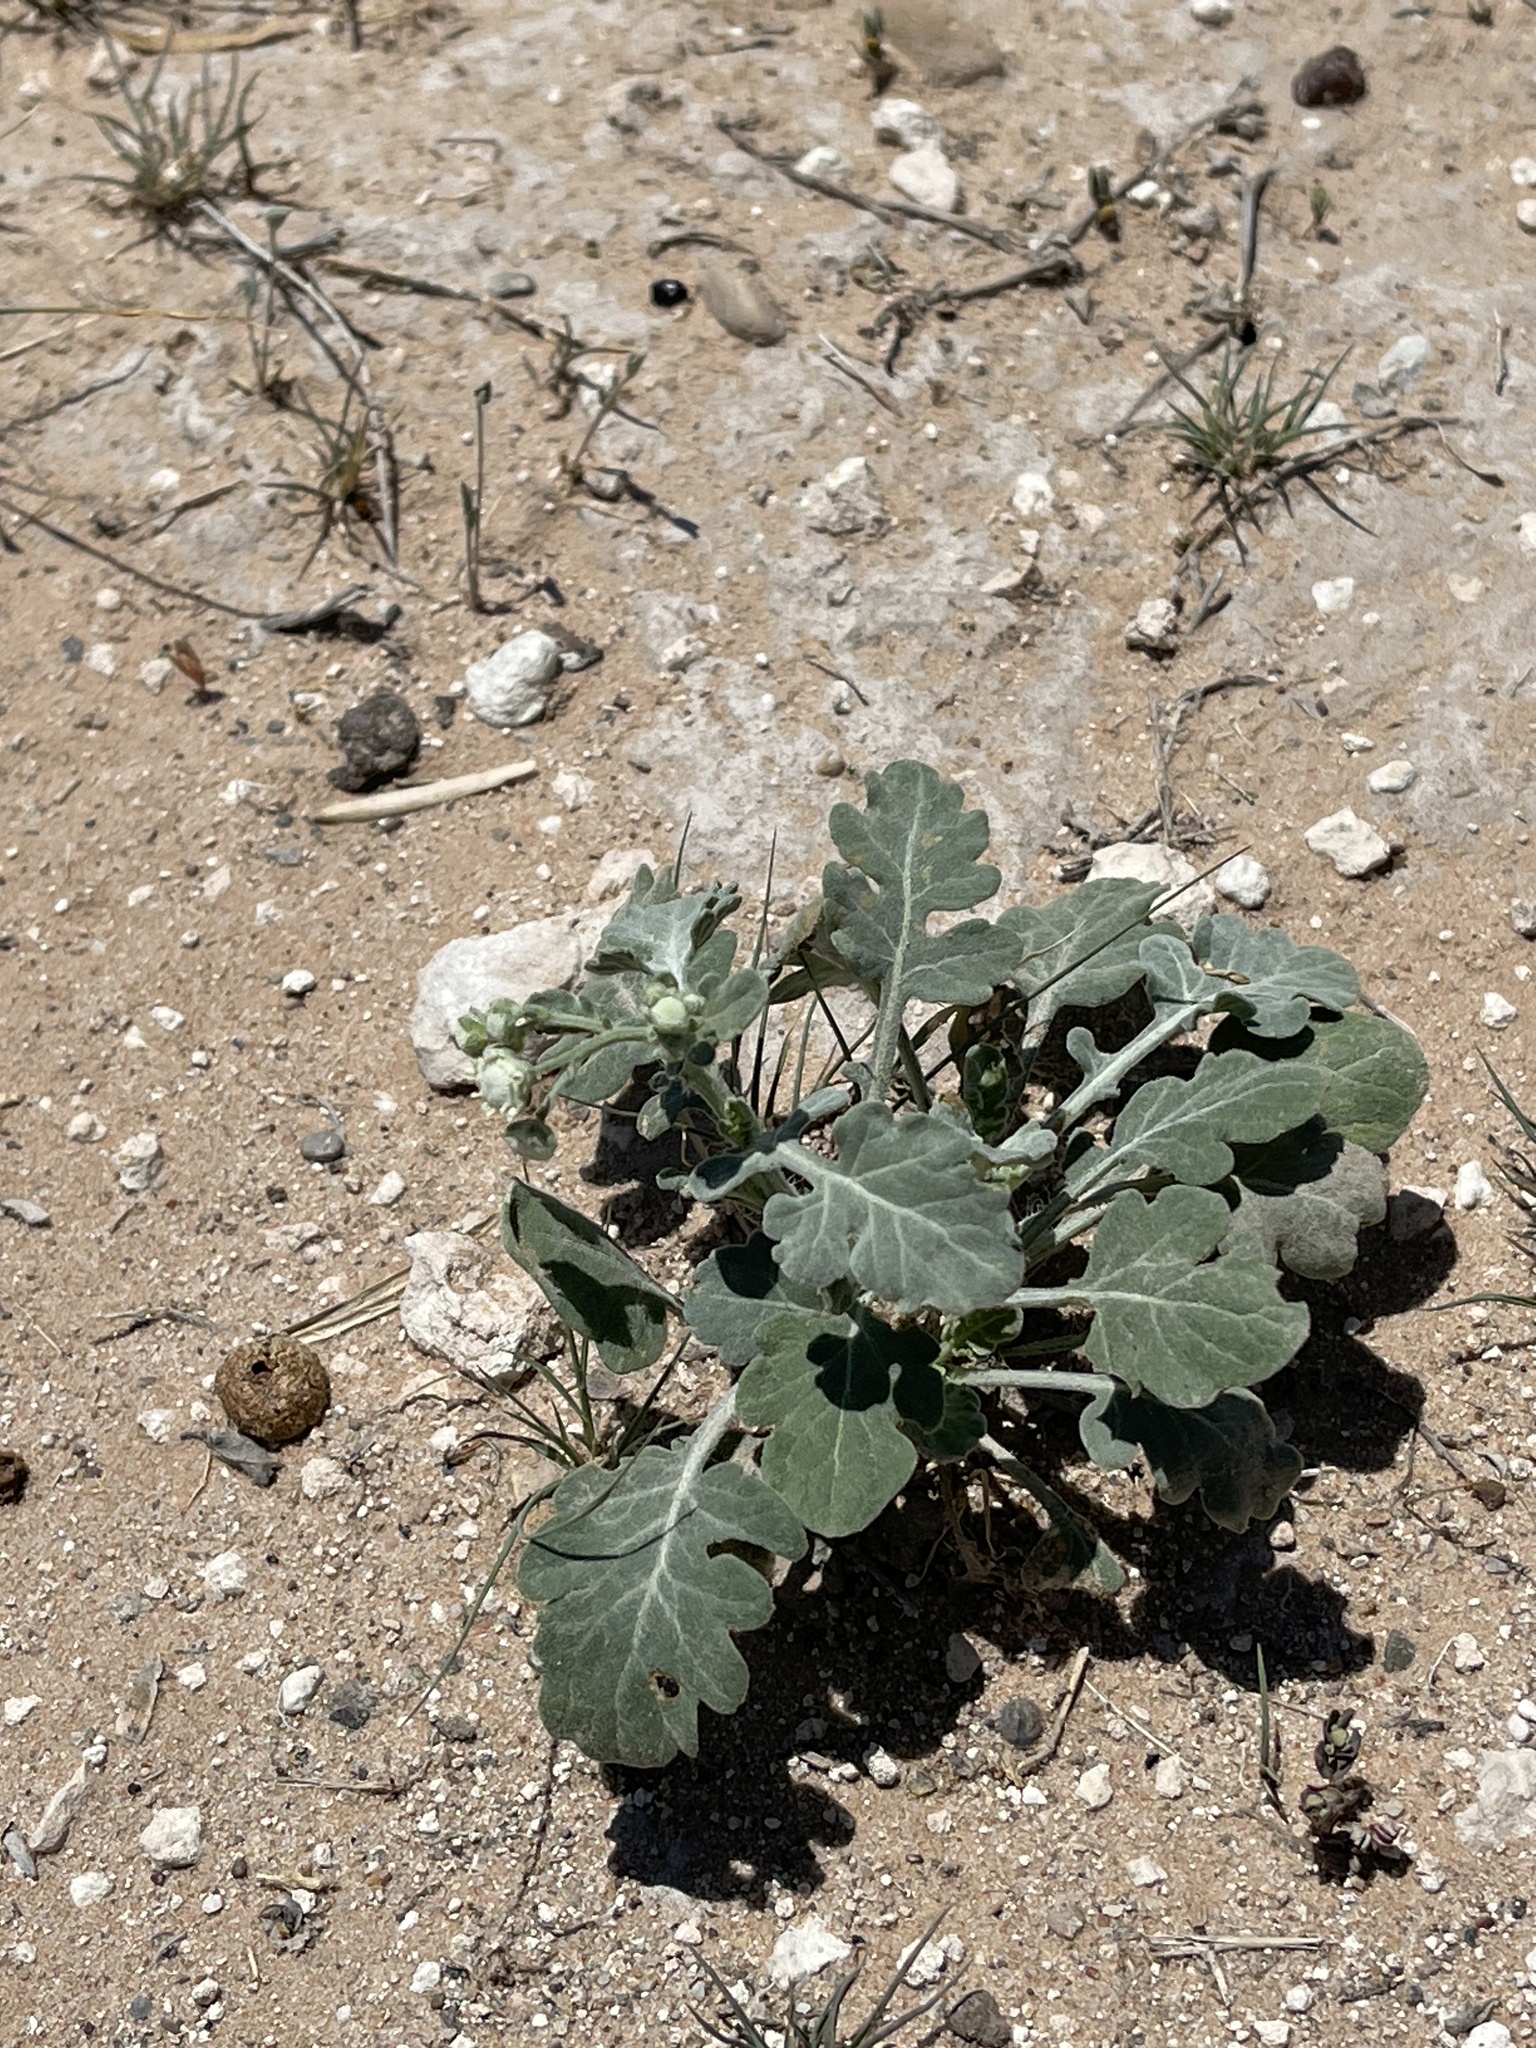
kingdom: Plantae
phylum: Tracheophyta
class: Magnoliopsida
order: Asterales
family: Asteraceae
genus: Parthenium
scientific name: Parthenium confertum
